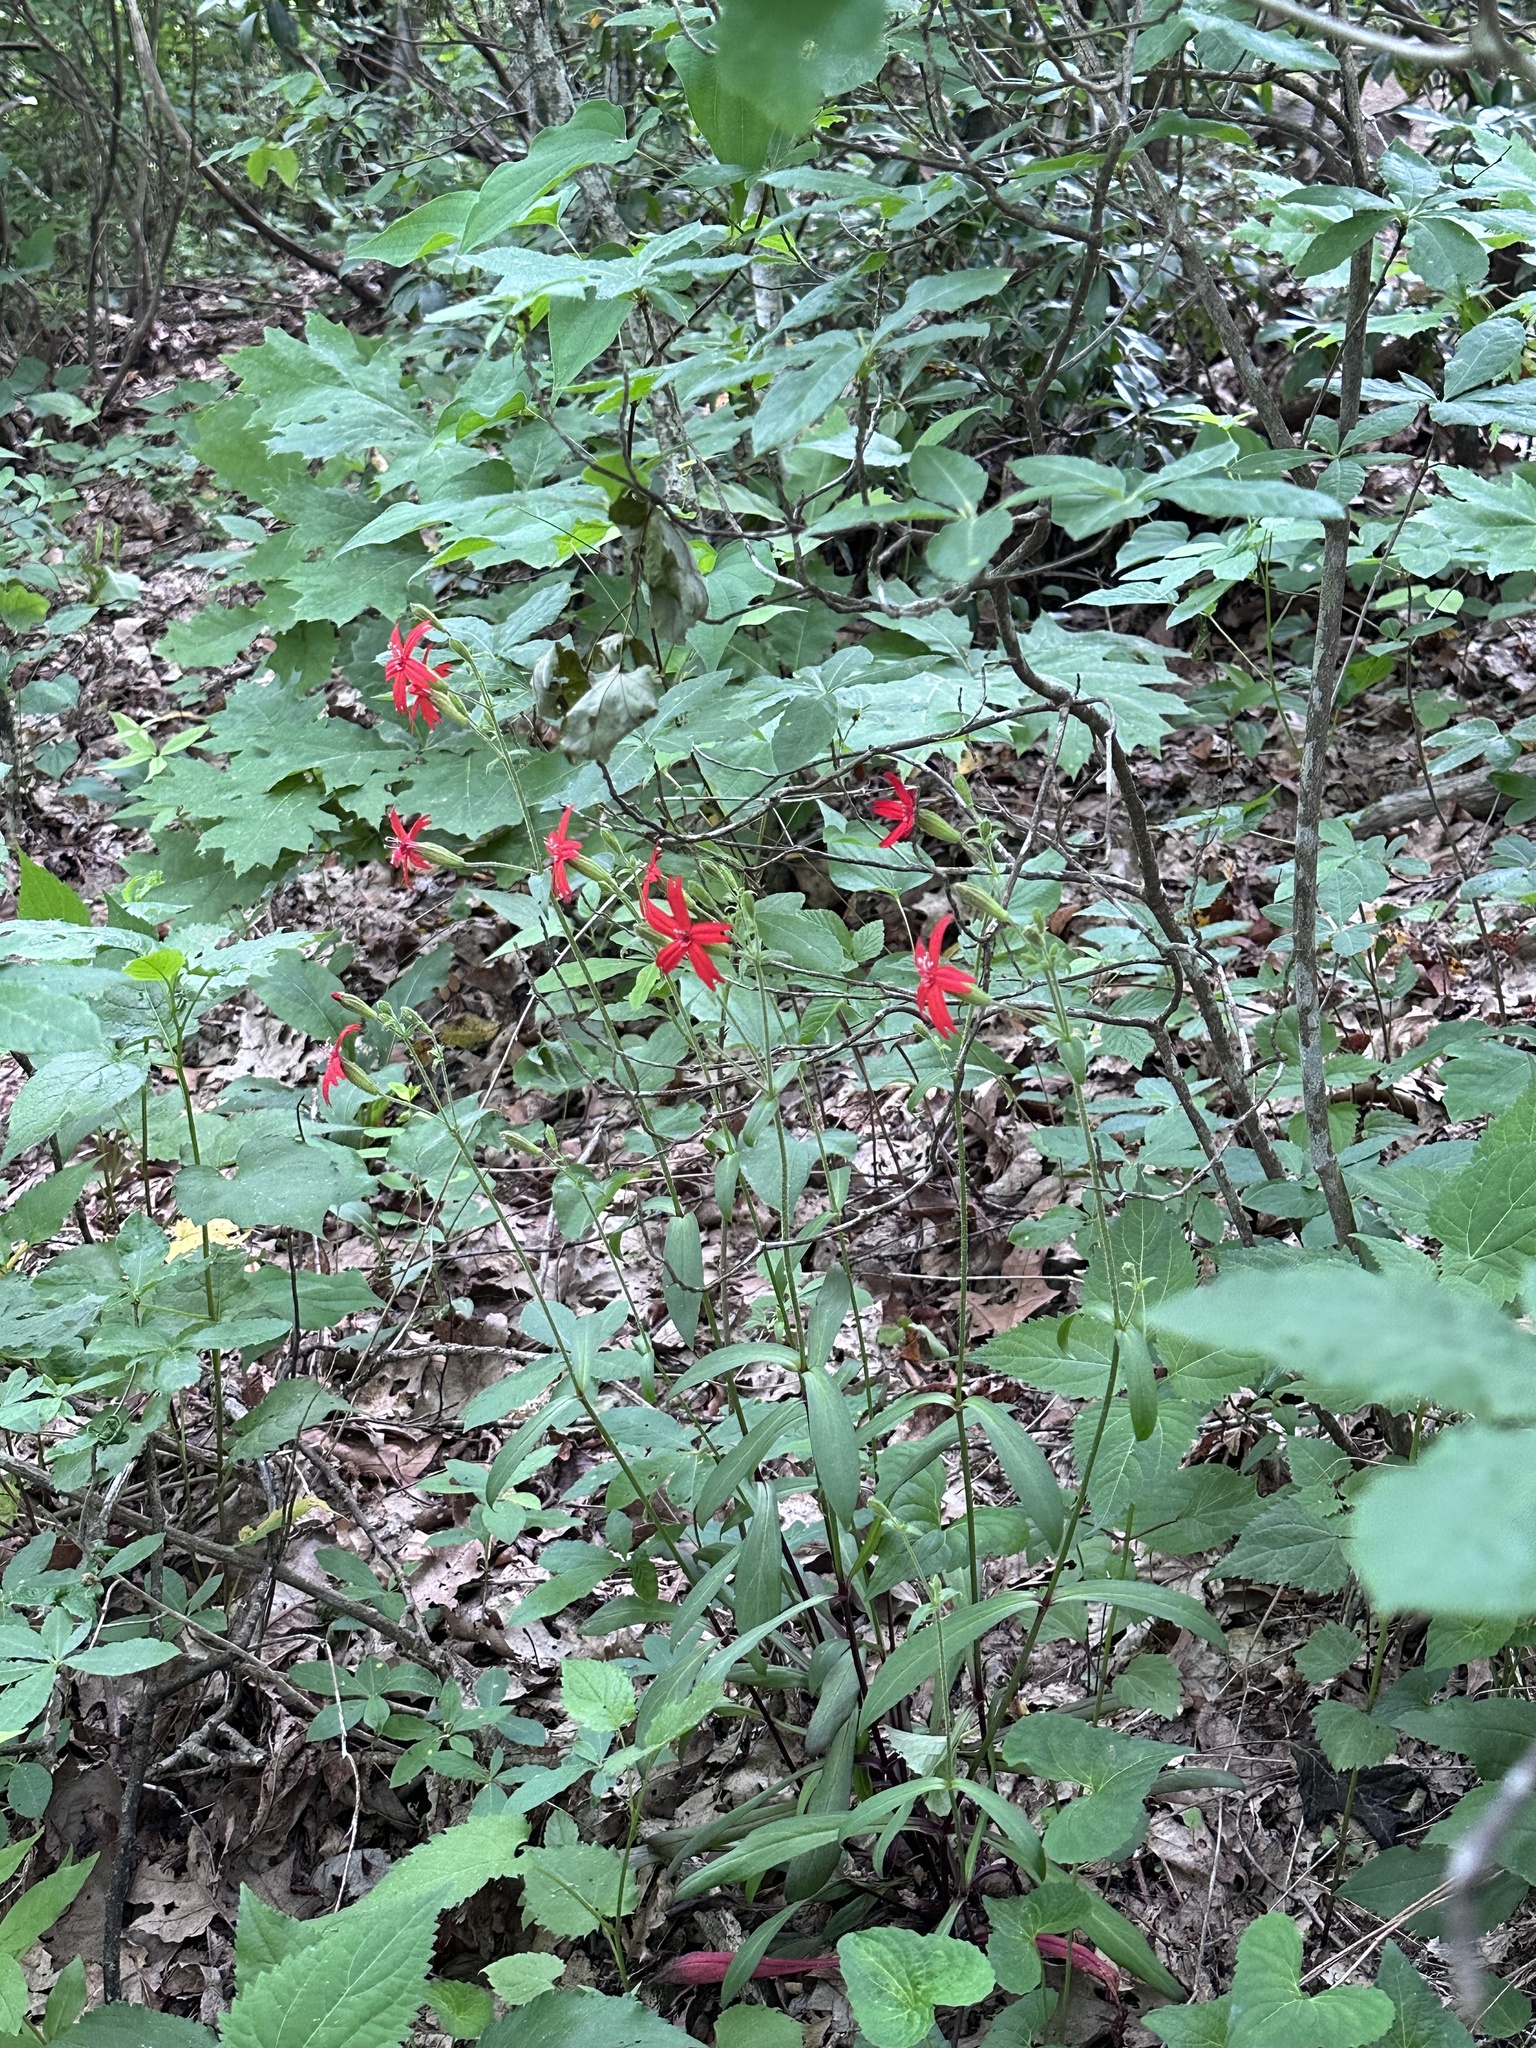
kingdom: Plantae
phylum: Tracheophyta
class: Magnoliopsida
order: Caryophyllales
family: Caryophyllaceae
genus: Silene
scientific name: Silene virginica
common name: Fire-pink
